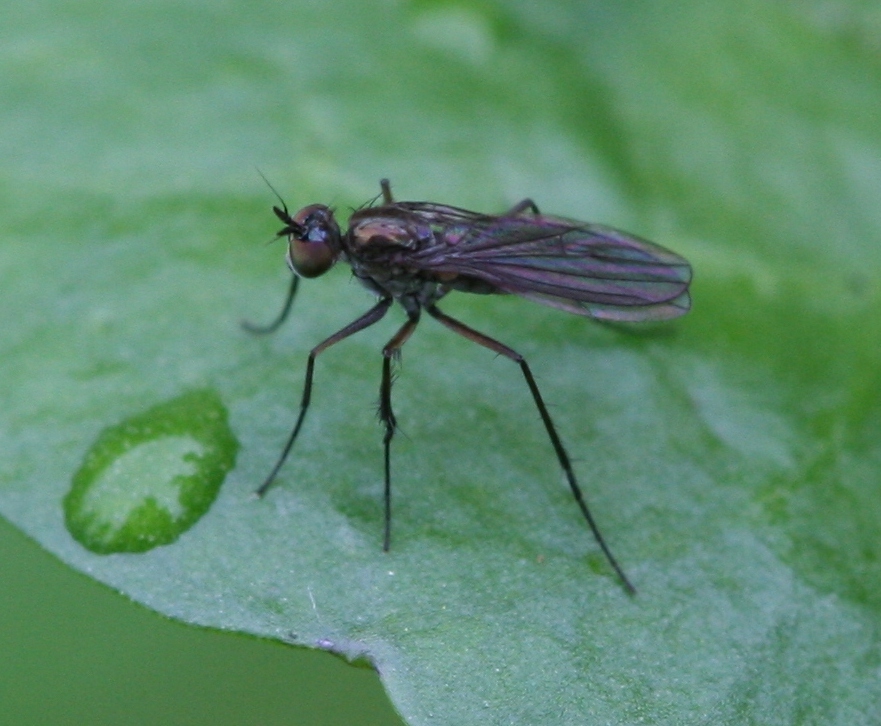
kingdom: Animalia
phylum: Arthropoda
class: Insecta
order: Diptera
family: Dolichopodidae
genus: Campsicnemus
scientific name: Campsicnemus curvipes
